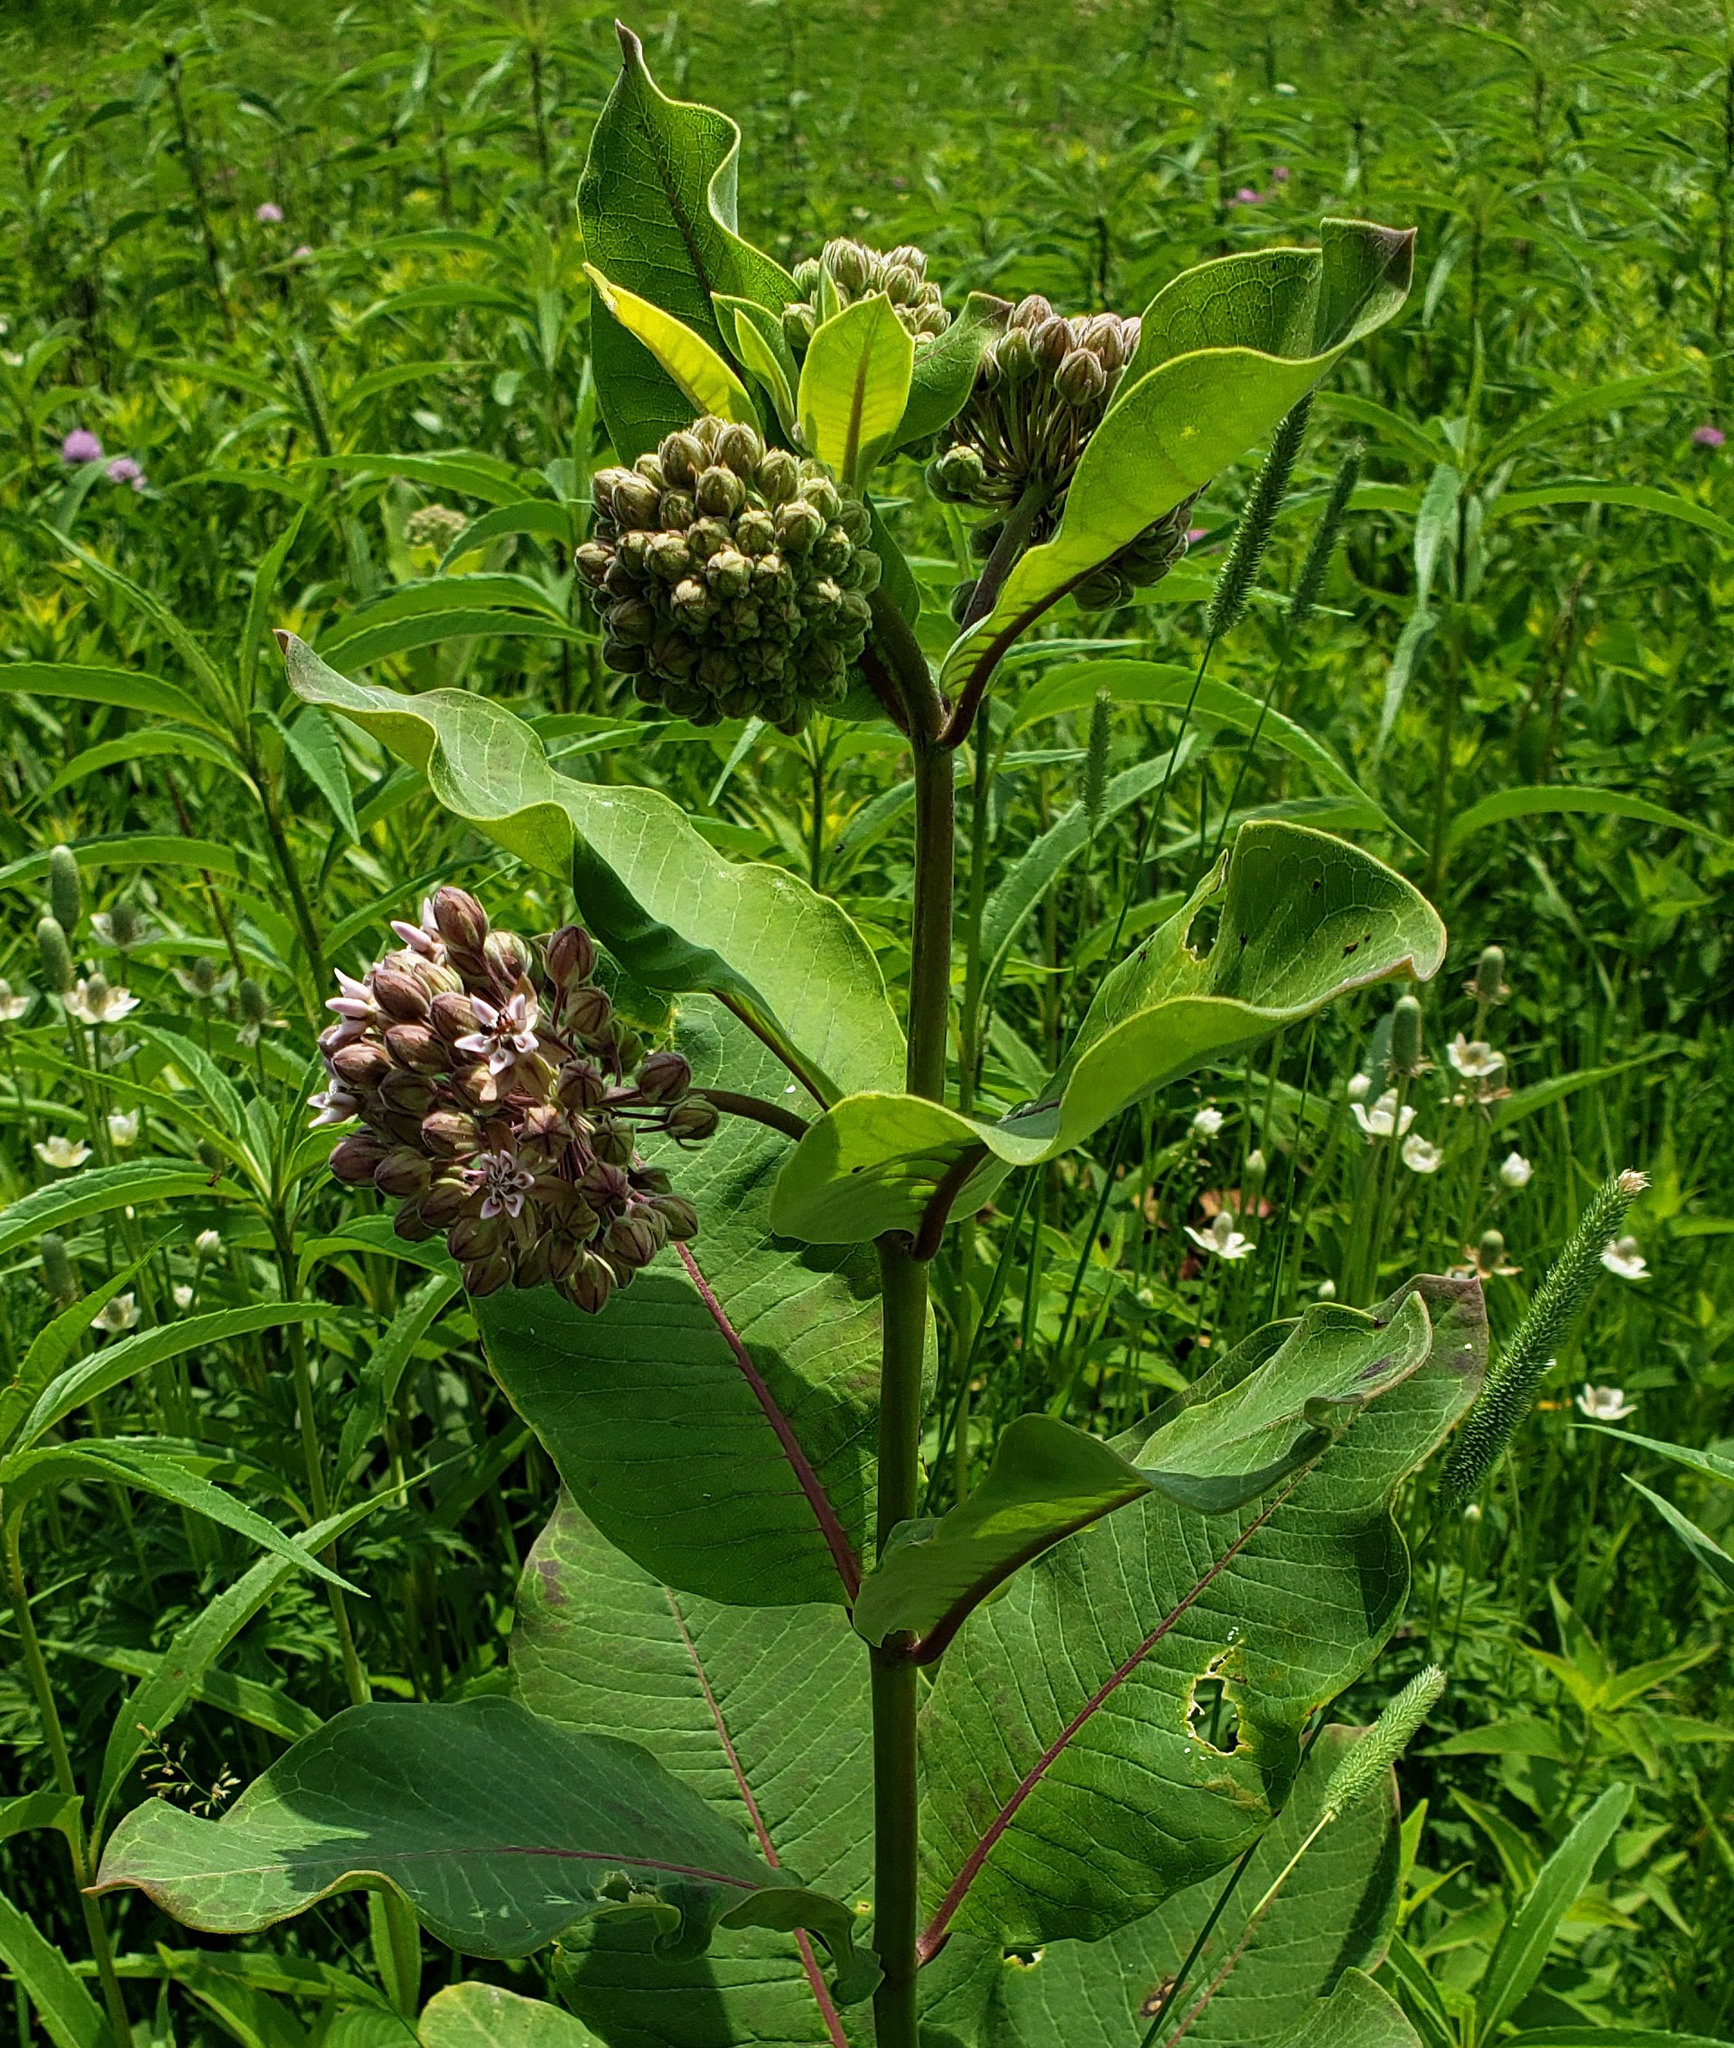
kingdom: Plantae
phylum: Tracheophyta
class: Magnoliopsida
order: Gentianales
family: Apocynaceae
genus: Asclepias
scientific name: Asclepias syriaca
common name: Common milkweed
